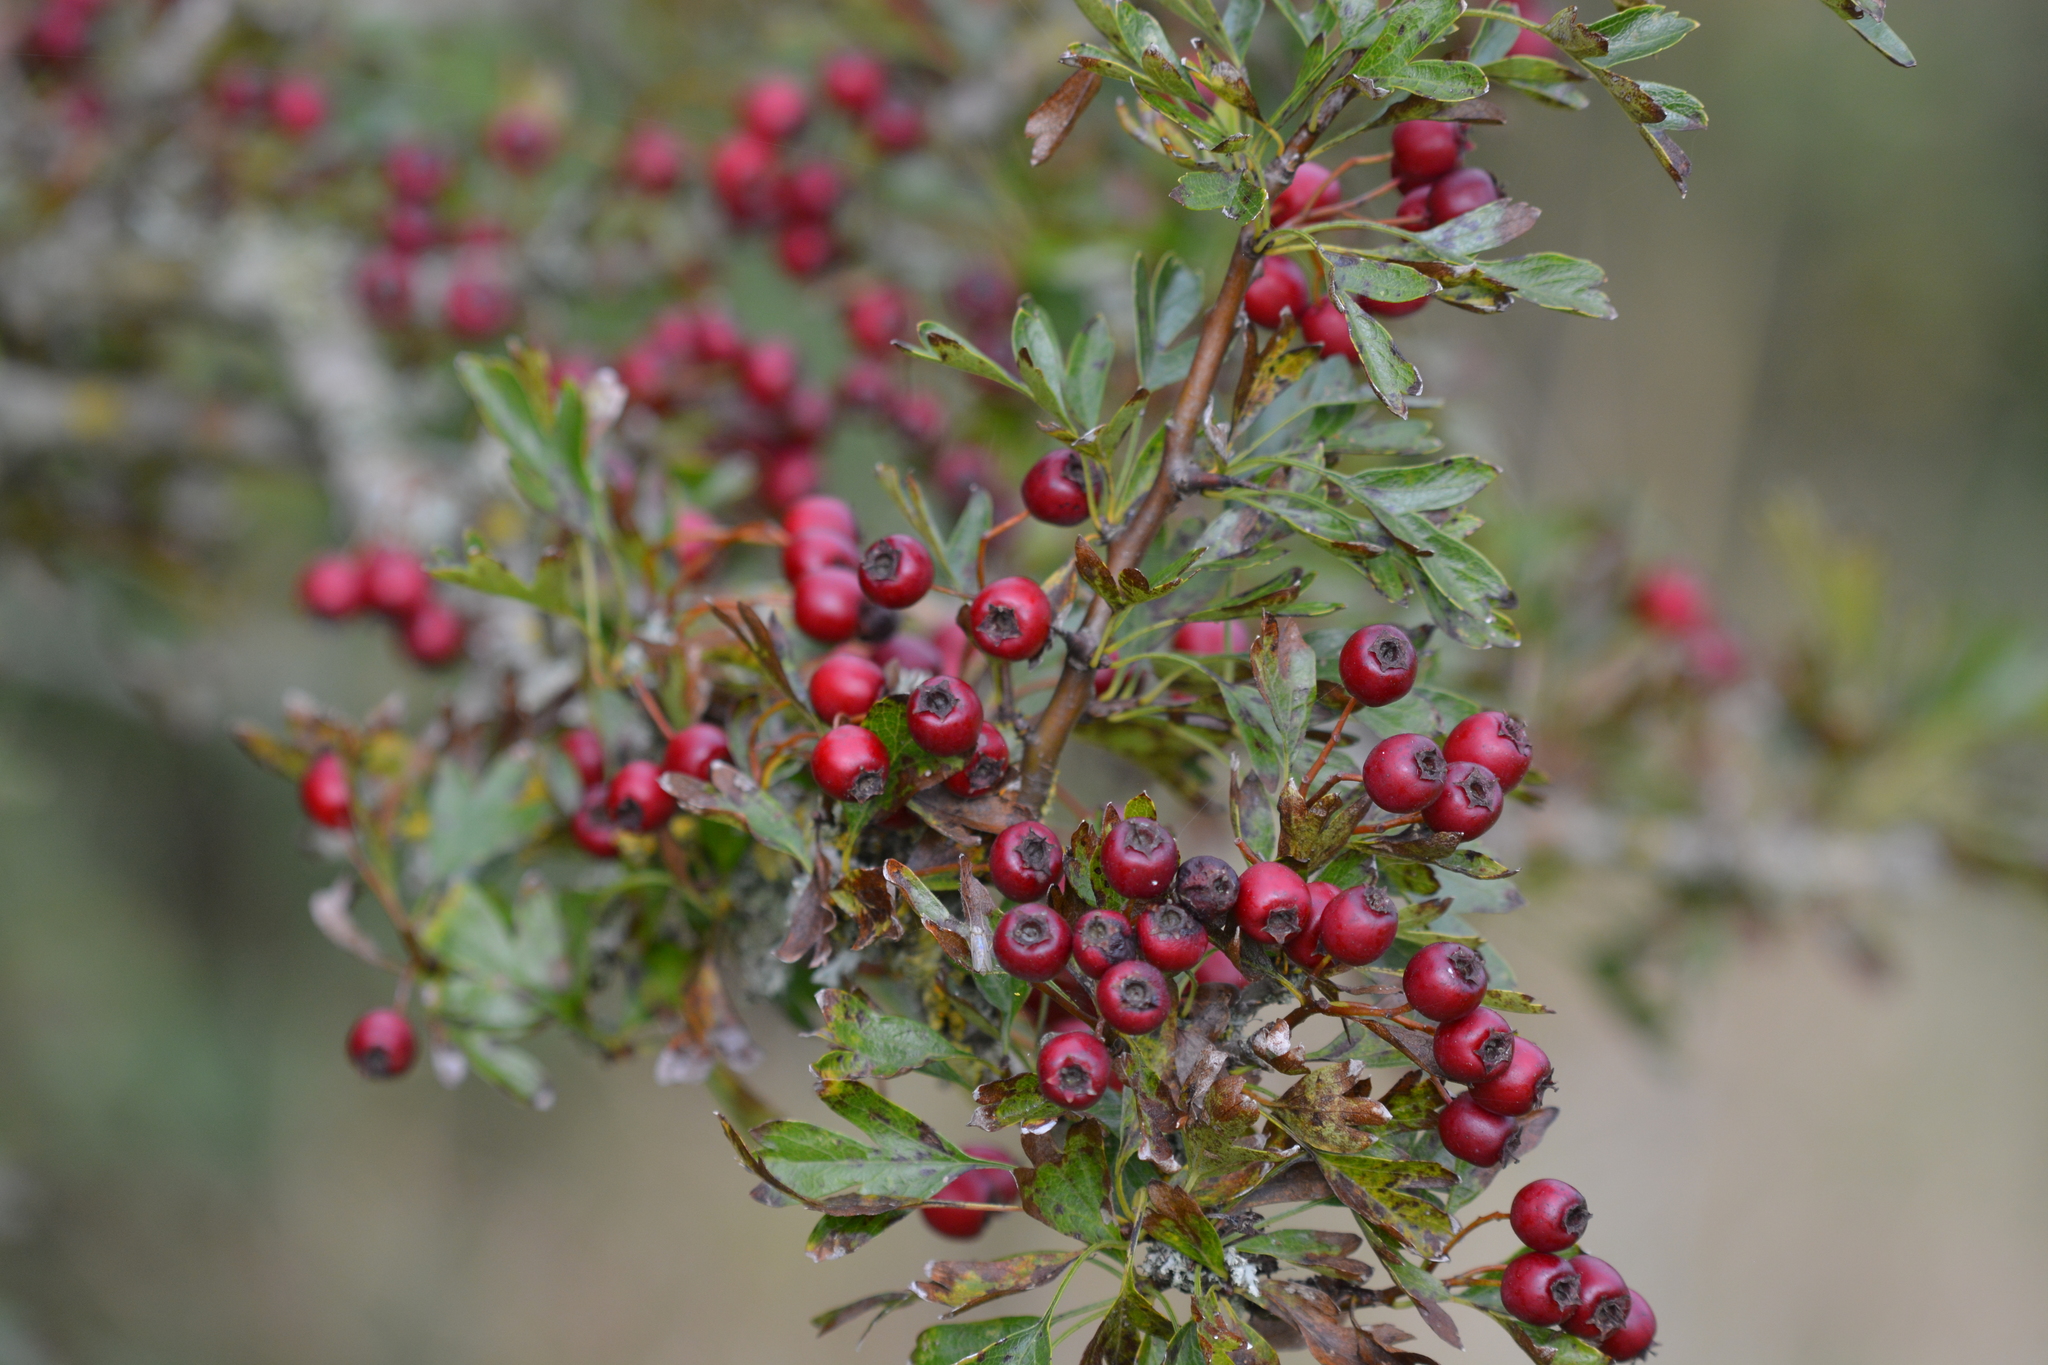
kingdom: Plantae
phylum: Tracheophyta
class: Magnoliopsida
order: Rosales
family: Rosaceae
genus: Crataegus
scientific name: Crataegus monogyna
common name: Hawthorn
